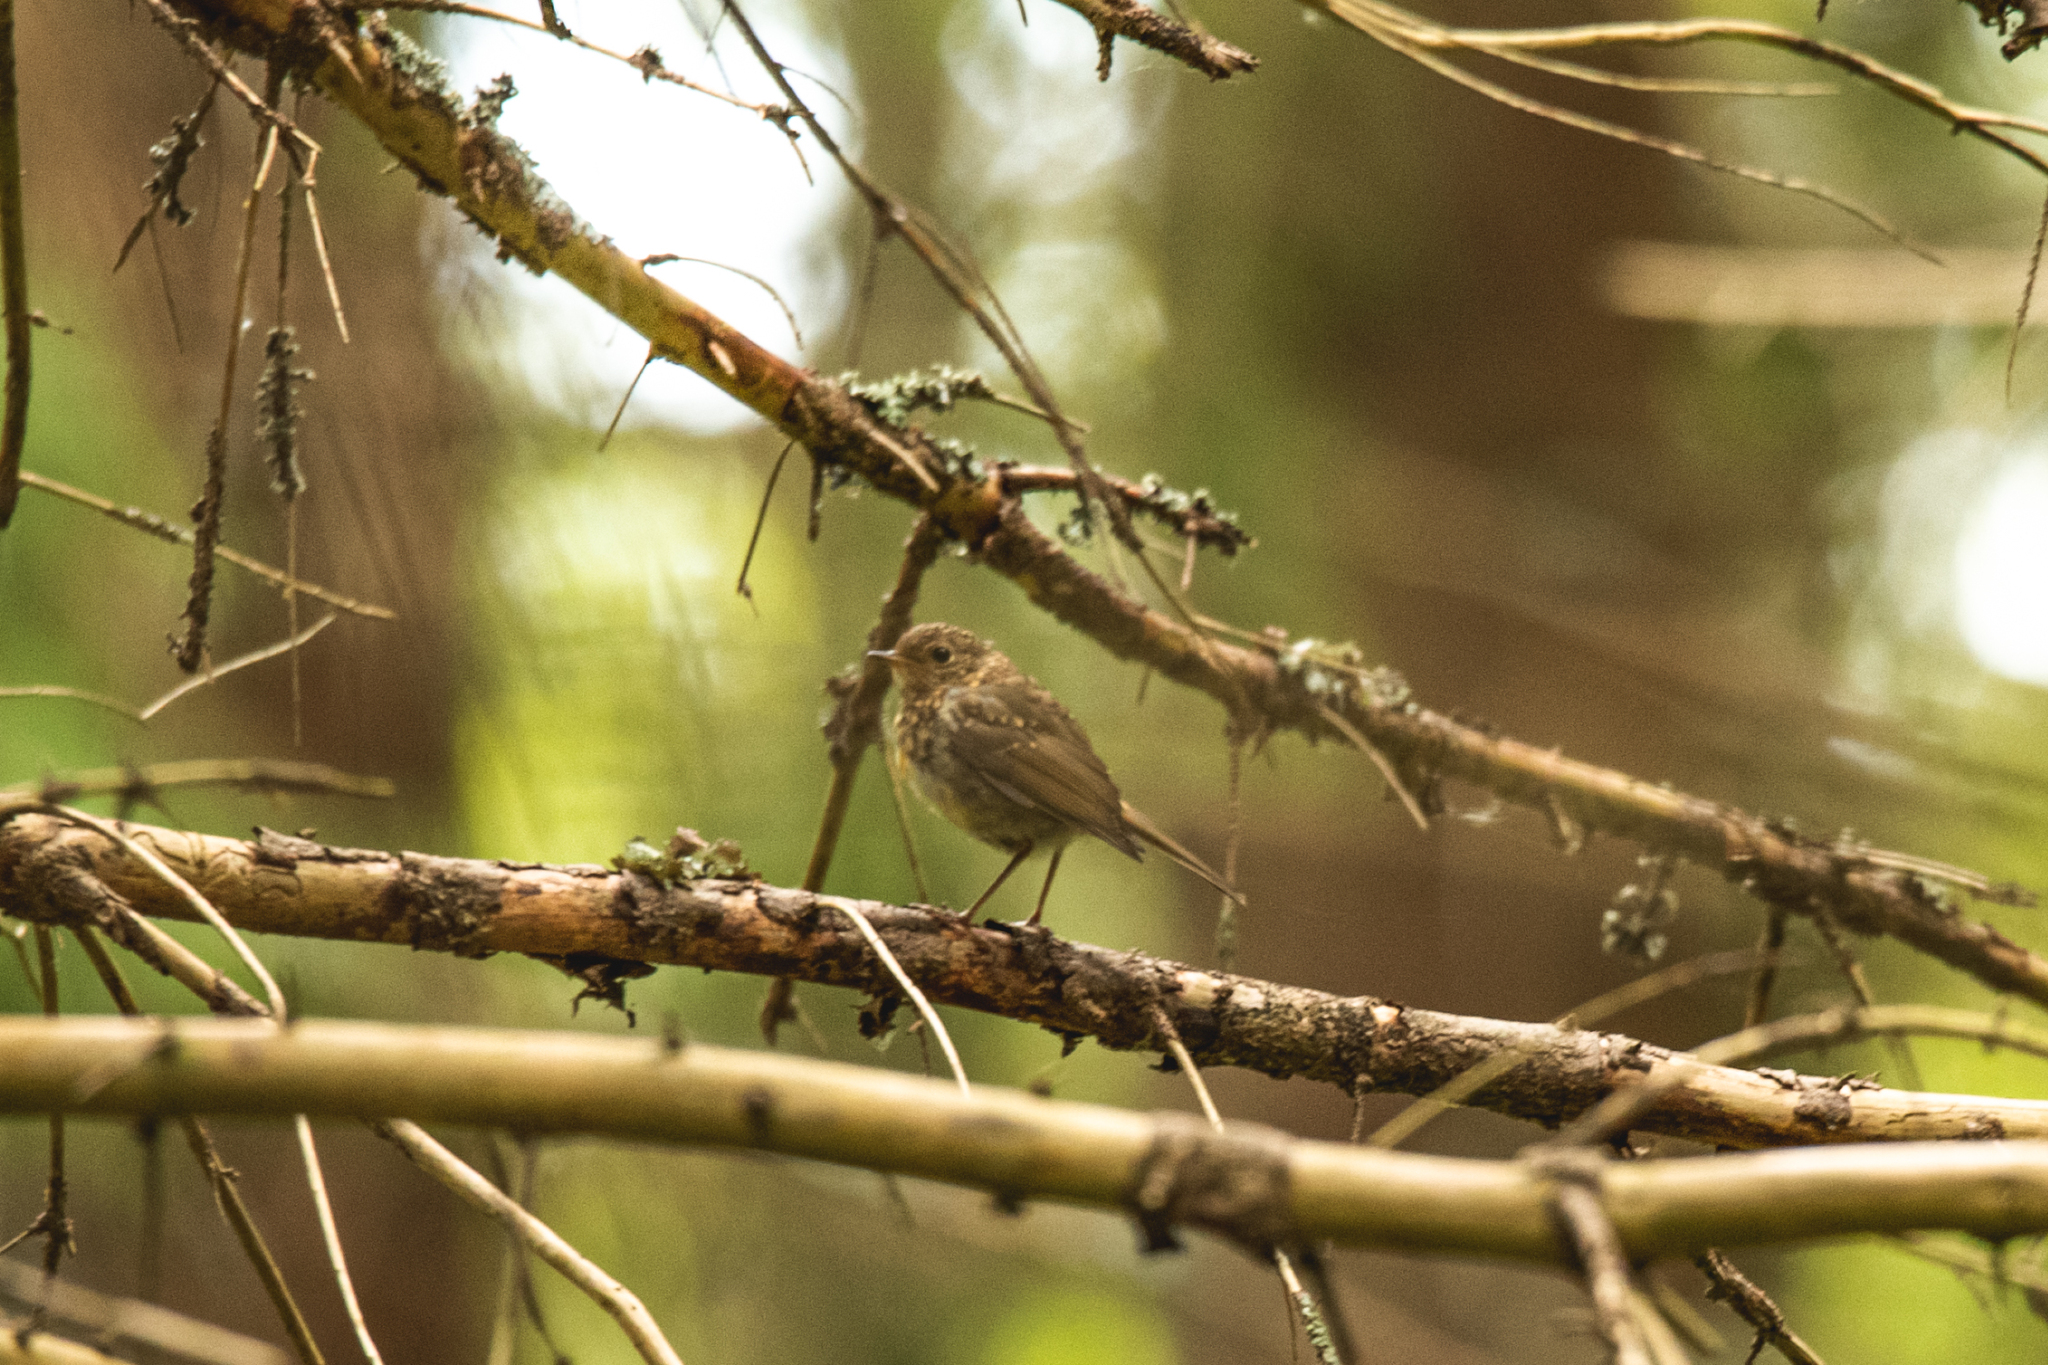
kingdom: Animalia
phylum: Chordata
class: Aves
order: Passeriformes
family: Muscicapidae
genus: Erithacus
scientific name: Erithacus rubecula
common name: European robin
